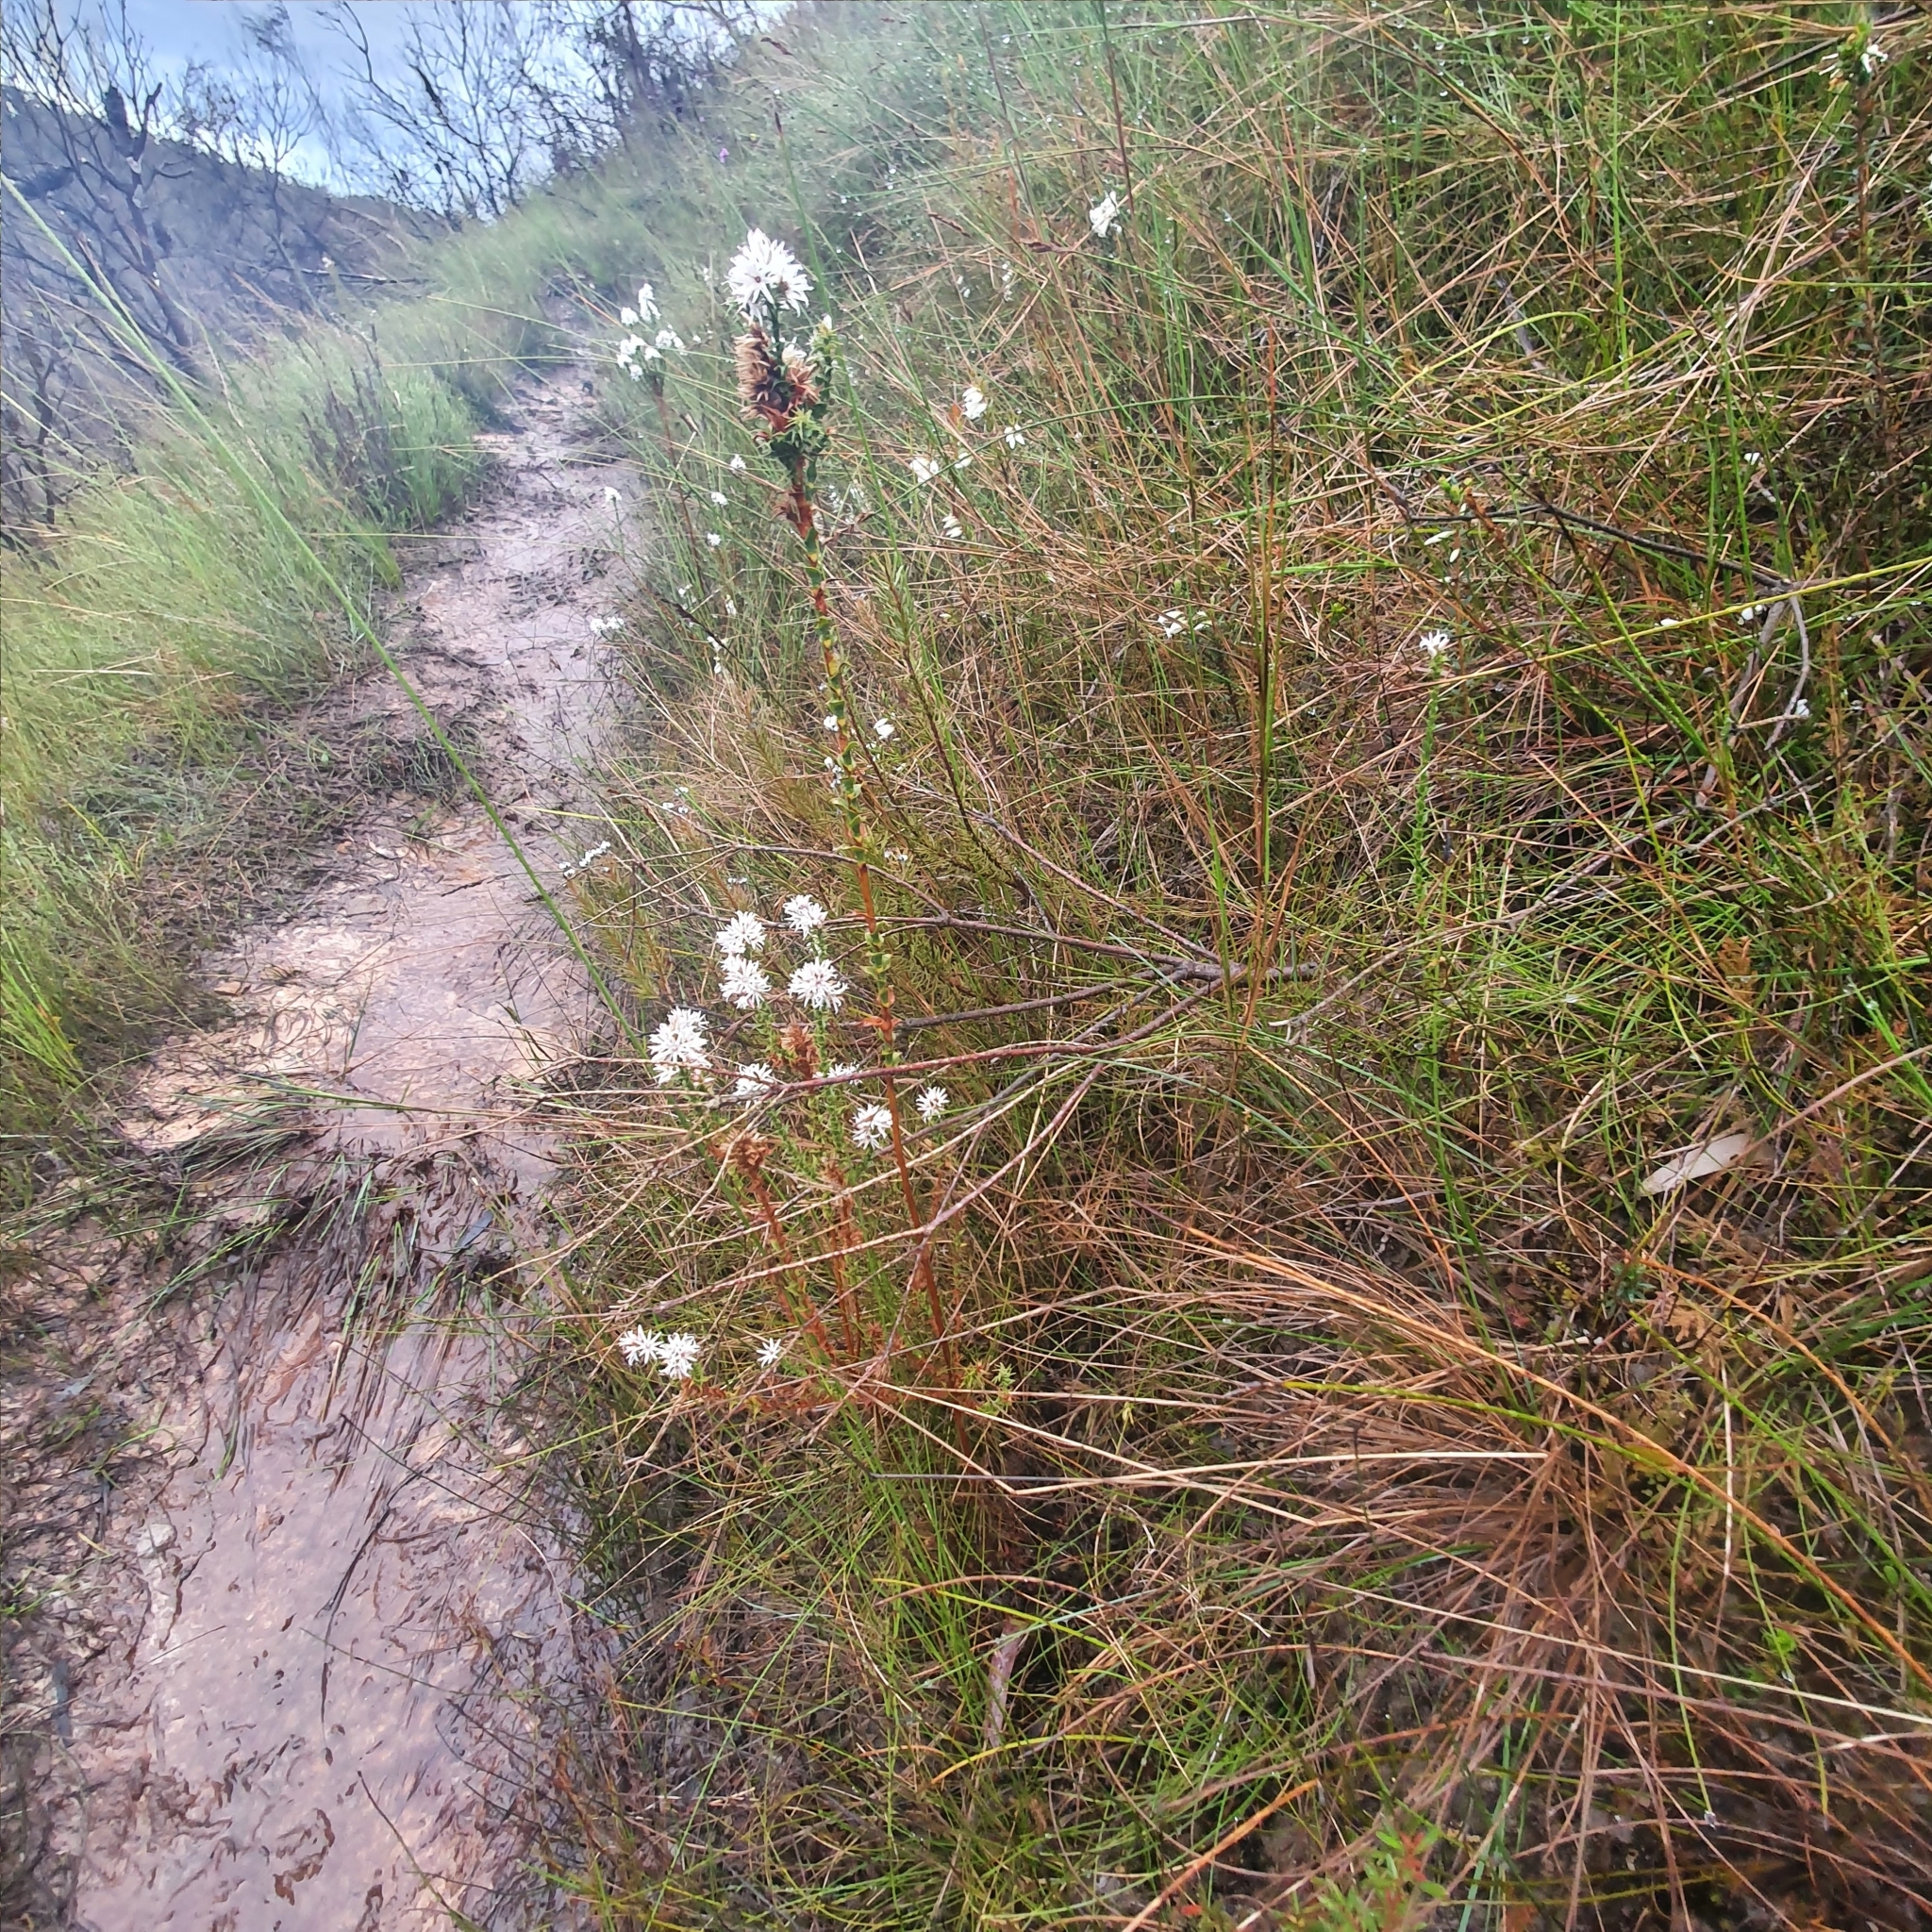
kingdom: Plantae
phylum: Tracheophyta
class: Magnoliopsida
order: Ericales
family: Ericaceae
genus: Sprengelia
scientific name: Sprengelia incarnata
